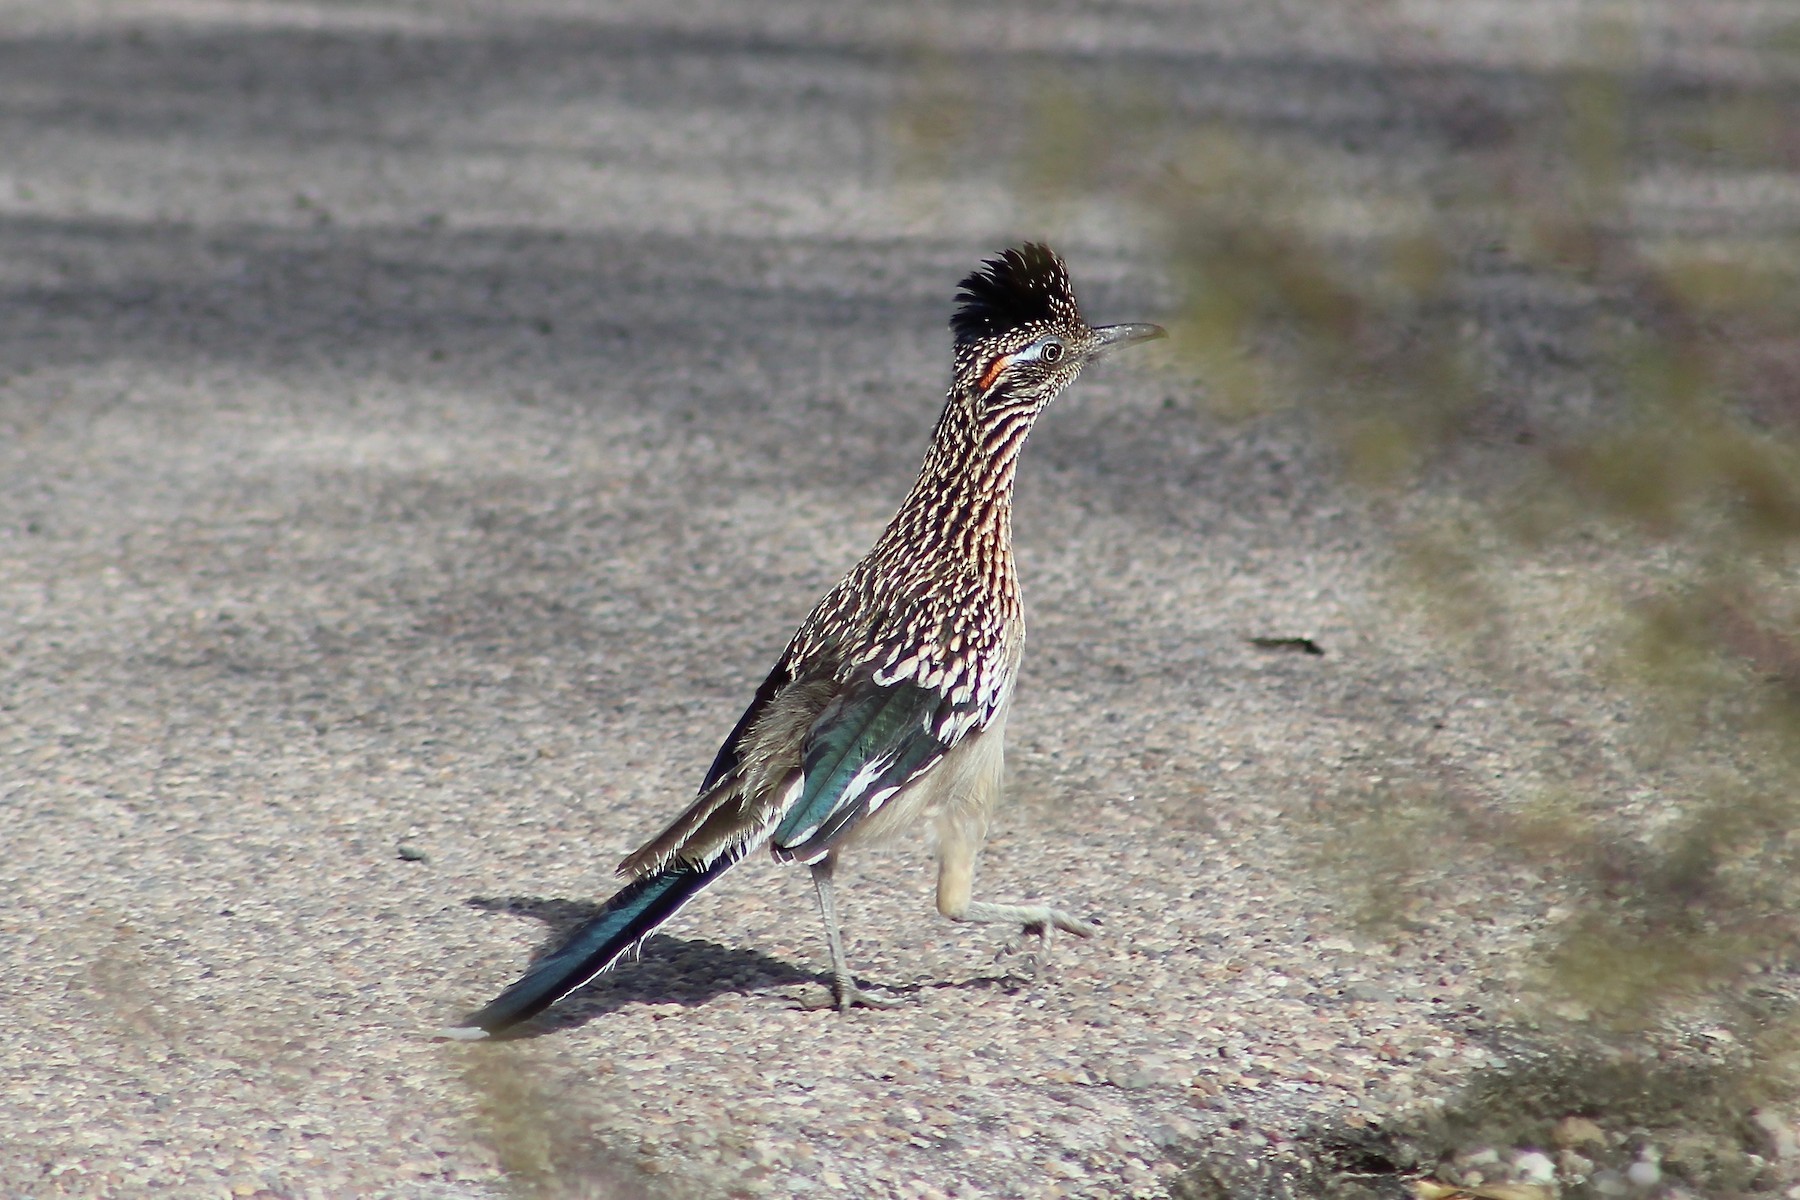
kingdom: Animalia
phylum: Chordata
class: Aves
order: Cuculiformes
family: Cuculidae
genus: Geococcyx
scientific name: Geococcyx californianus
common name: Greater roadrunner
